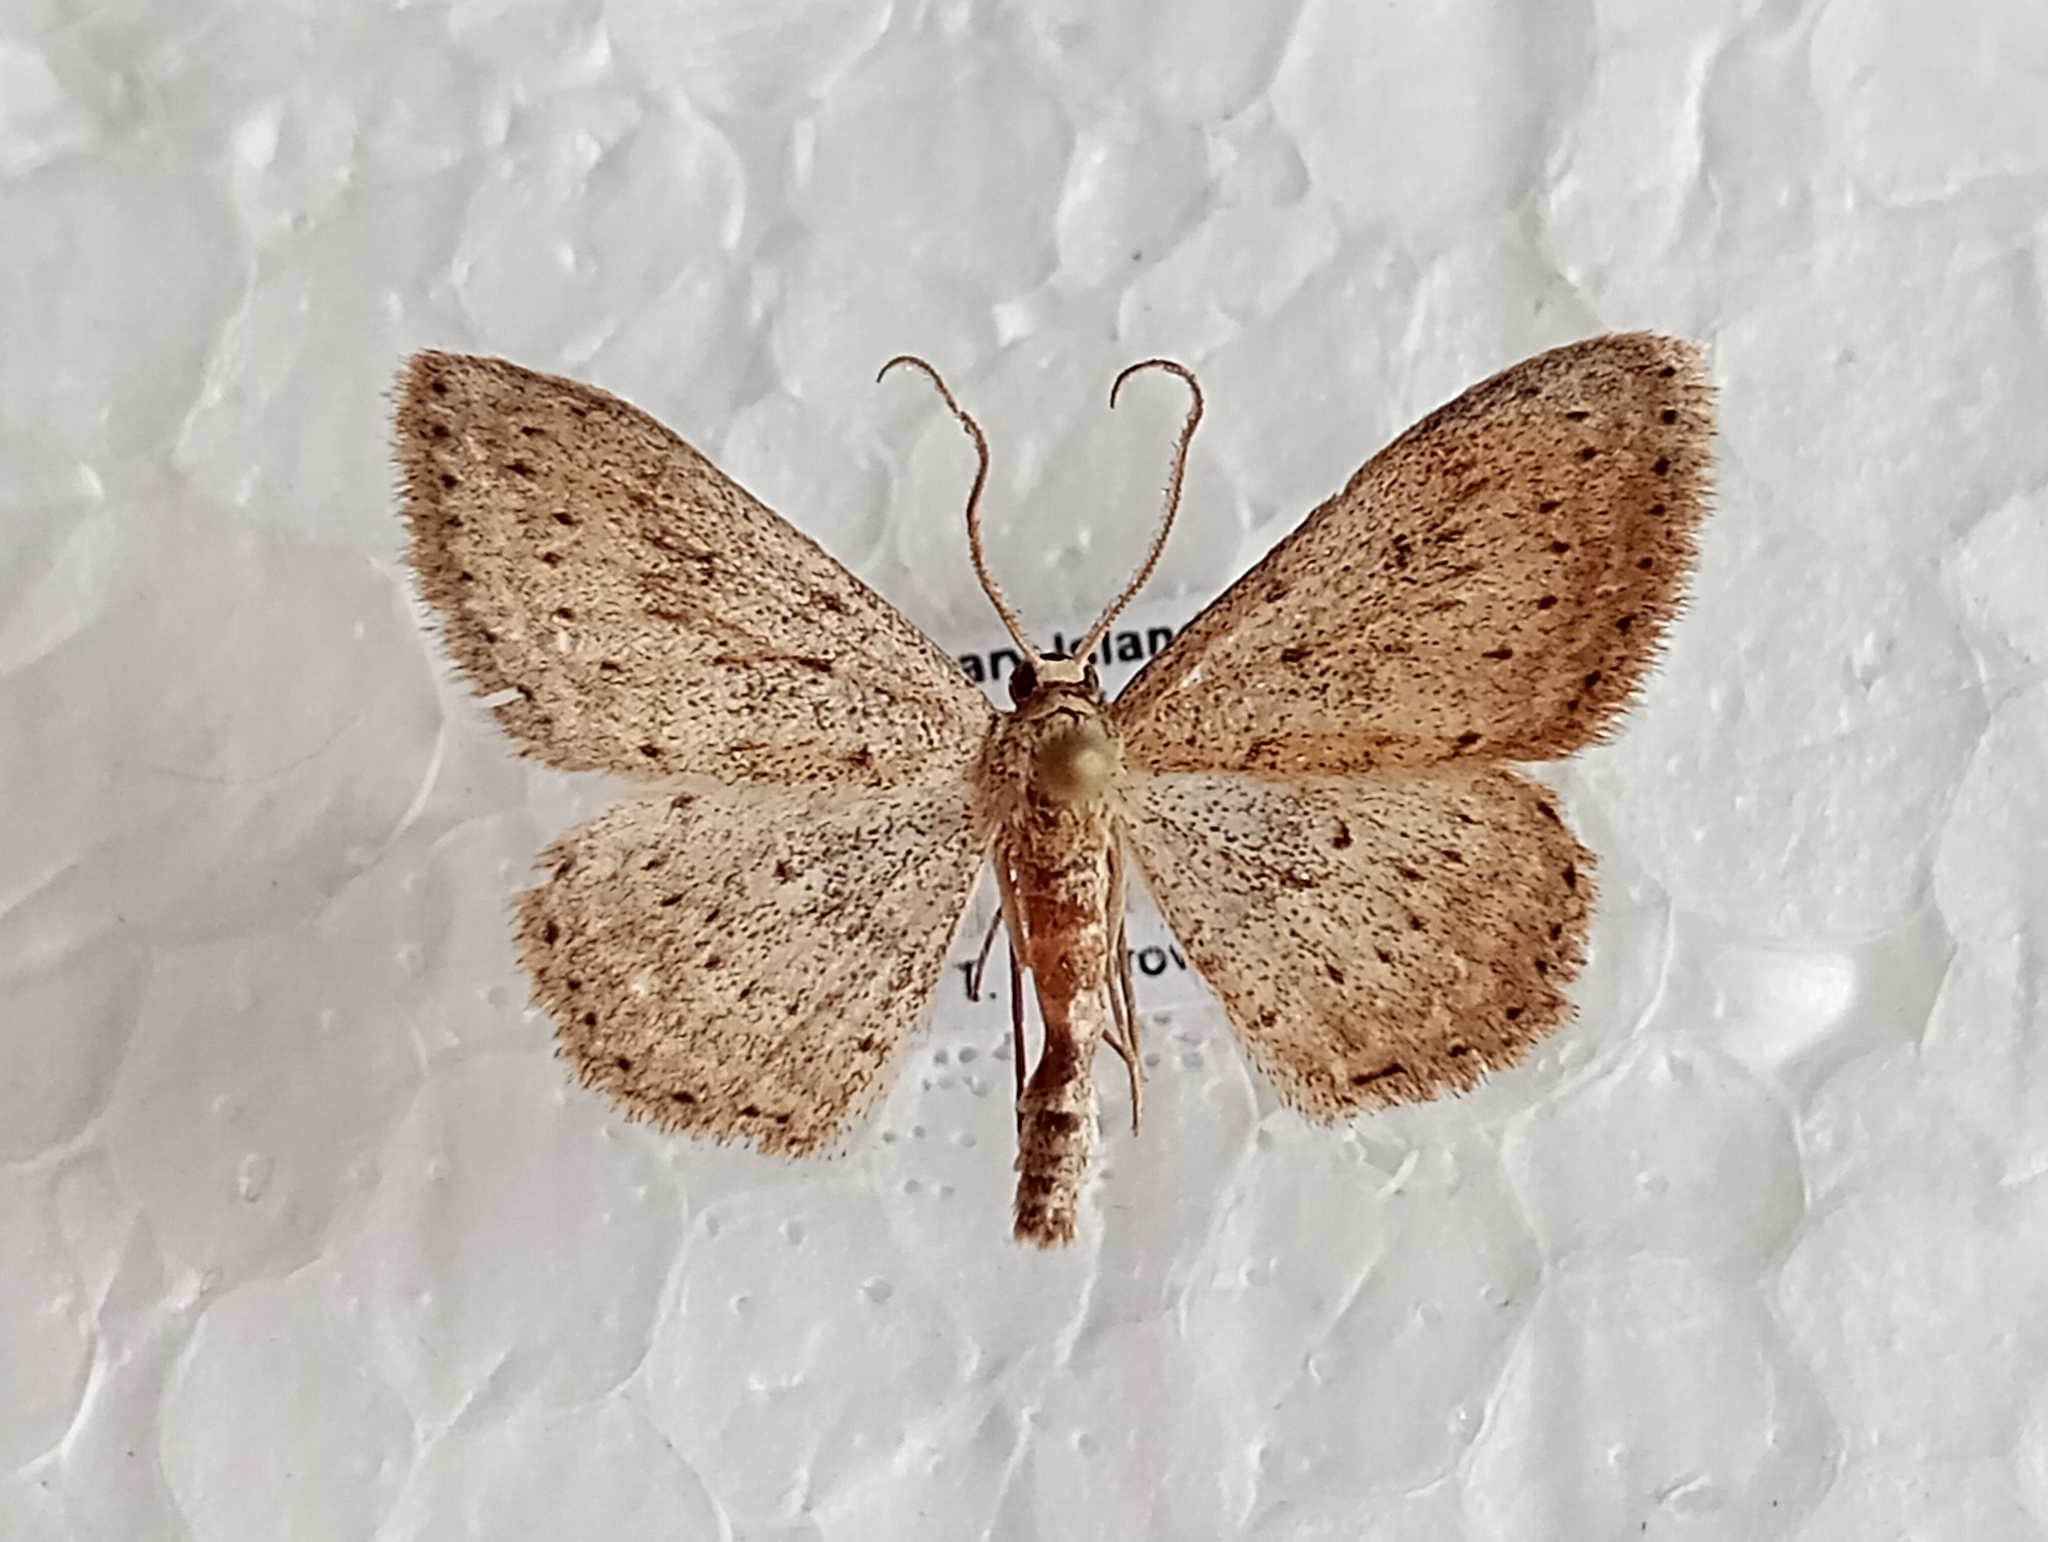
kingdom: Animalia
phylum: Arthropoda
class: Insecta
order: Lepidoptera
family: Geometridae
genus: Scopula
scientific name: Scopula guancharia
